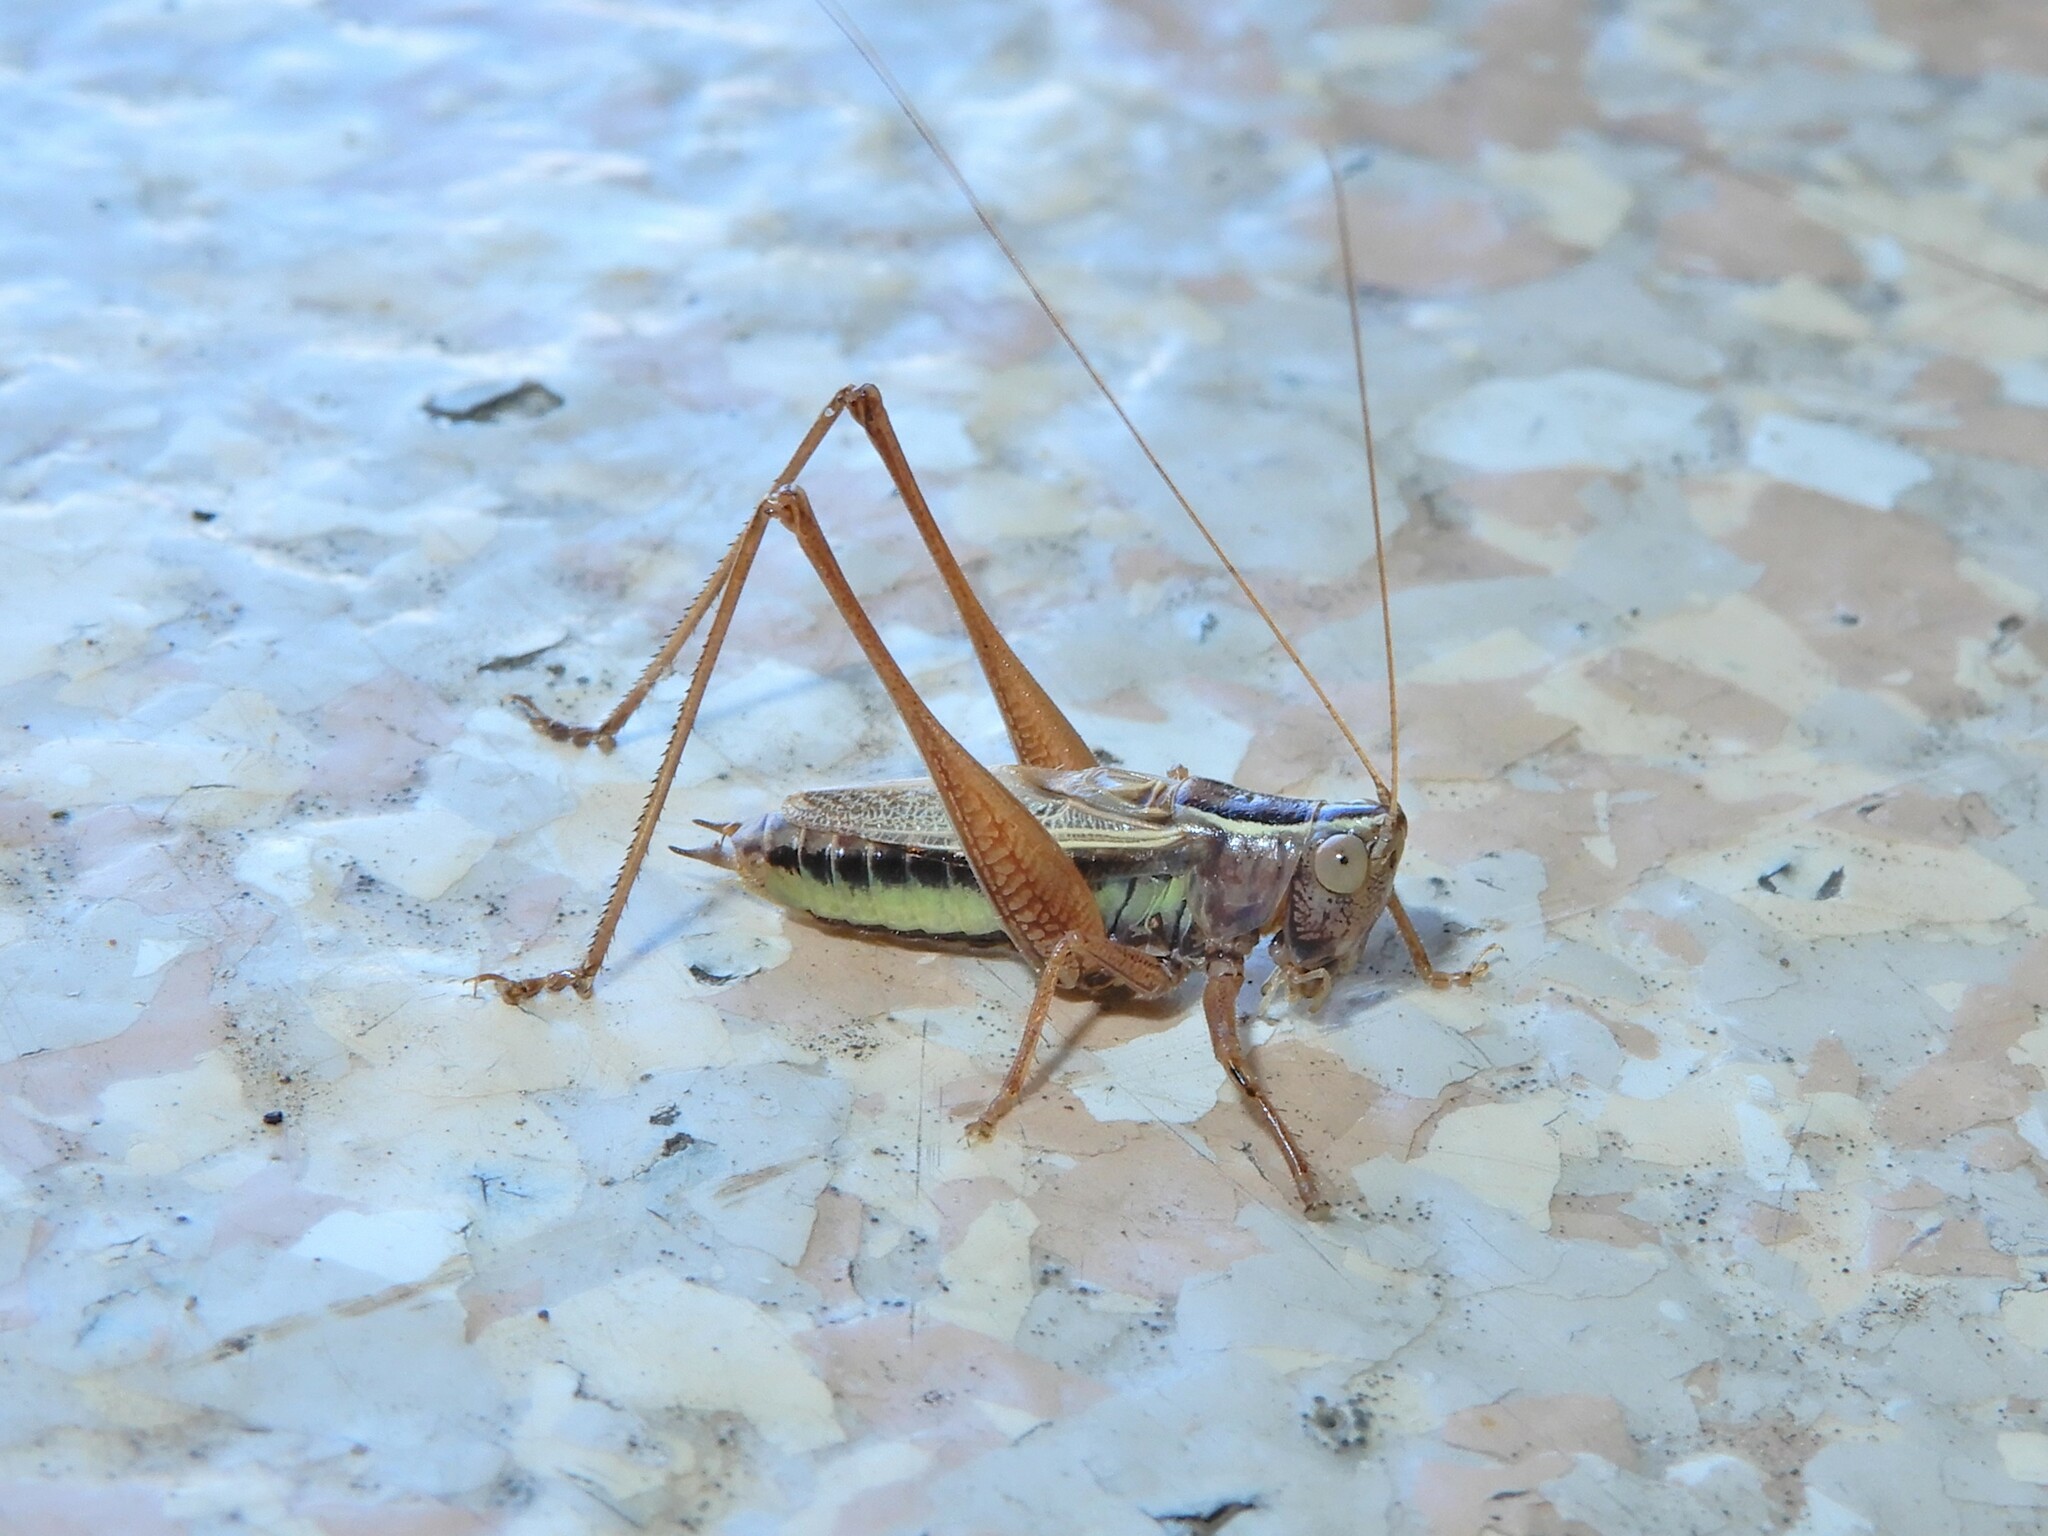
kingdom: Animalia
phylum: Arthropoda
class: Insecta
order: Orthoptera
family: Tettigoniidae
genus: Conocephalus
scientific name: Conocephalus albescens
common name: Whitish meadow katydid
